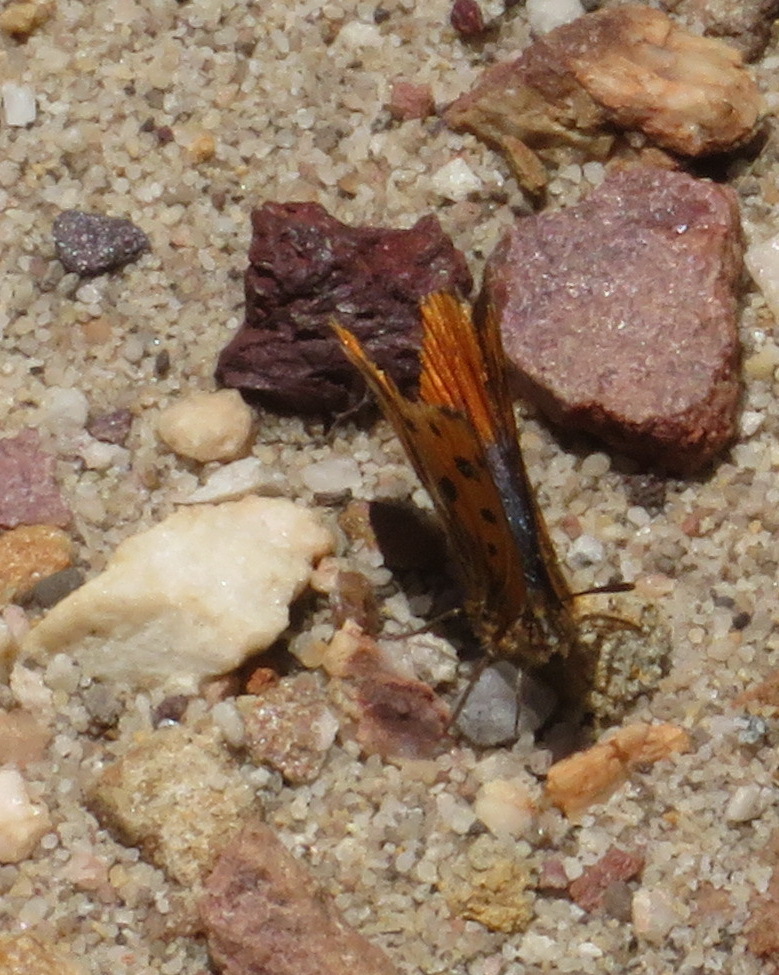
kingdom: Animalia
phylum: Arthropoda
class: Insecta
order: Lepidoptera
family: Lycaenidae
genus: Chrysoritis
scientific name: Chrysoritis
